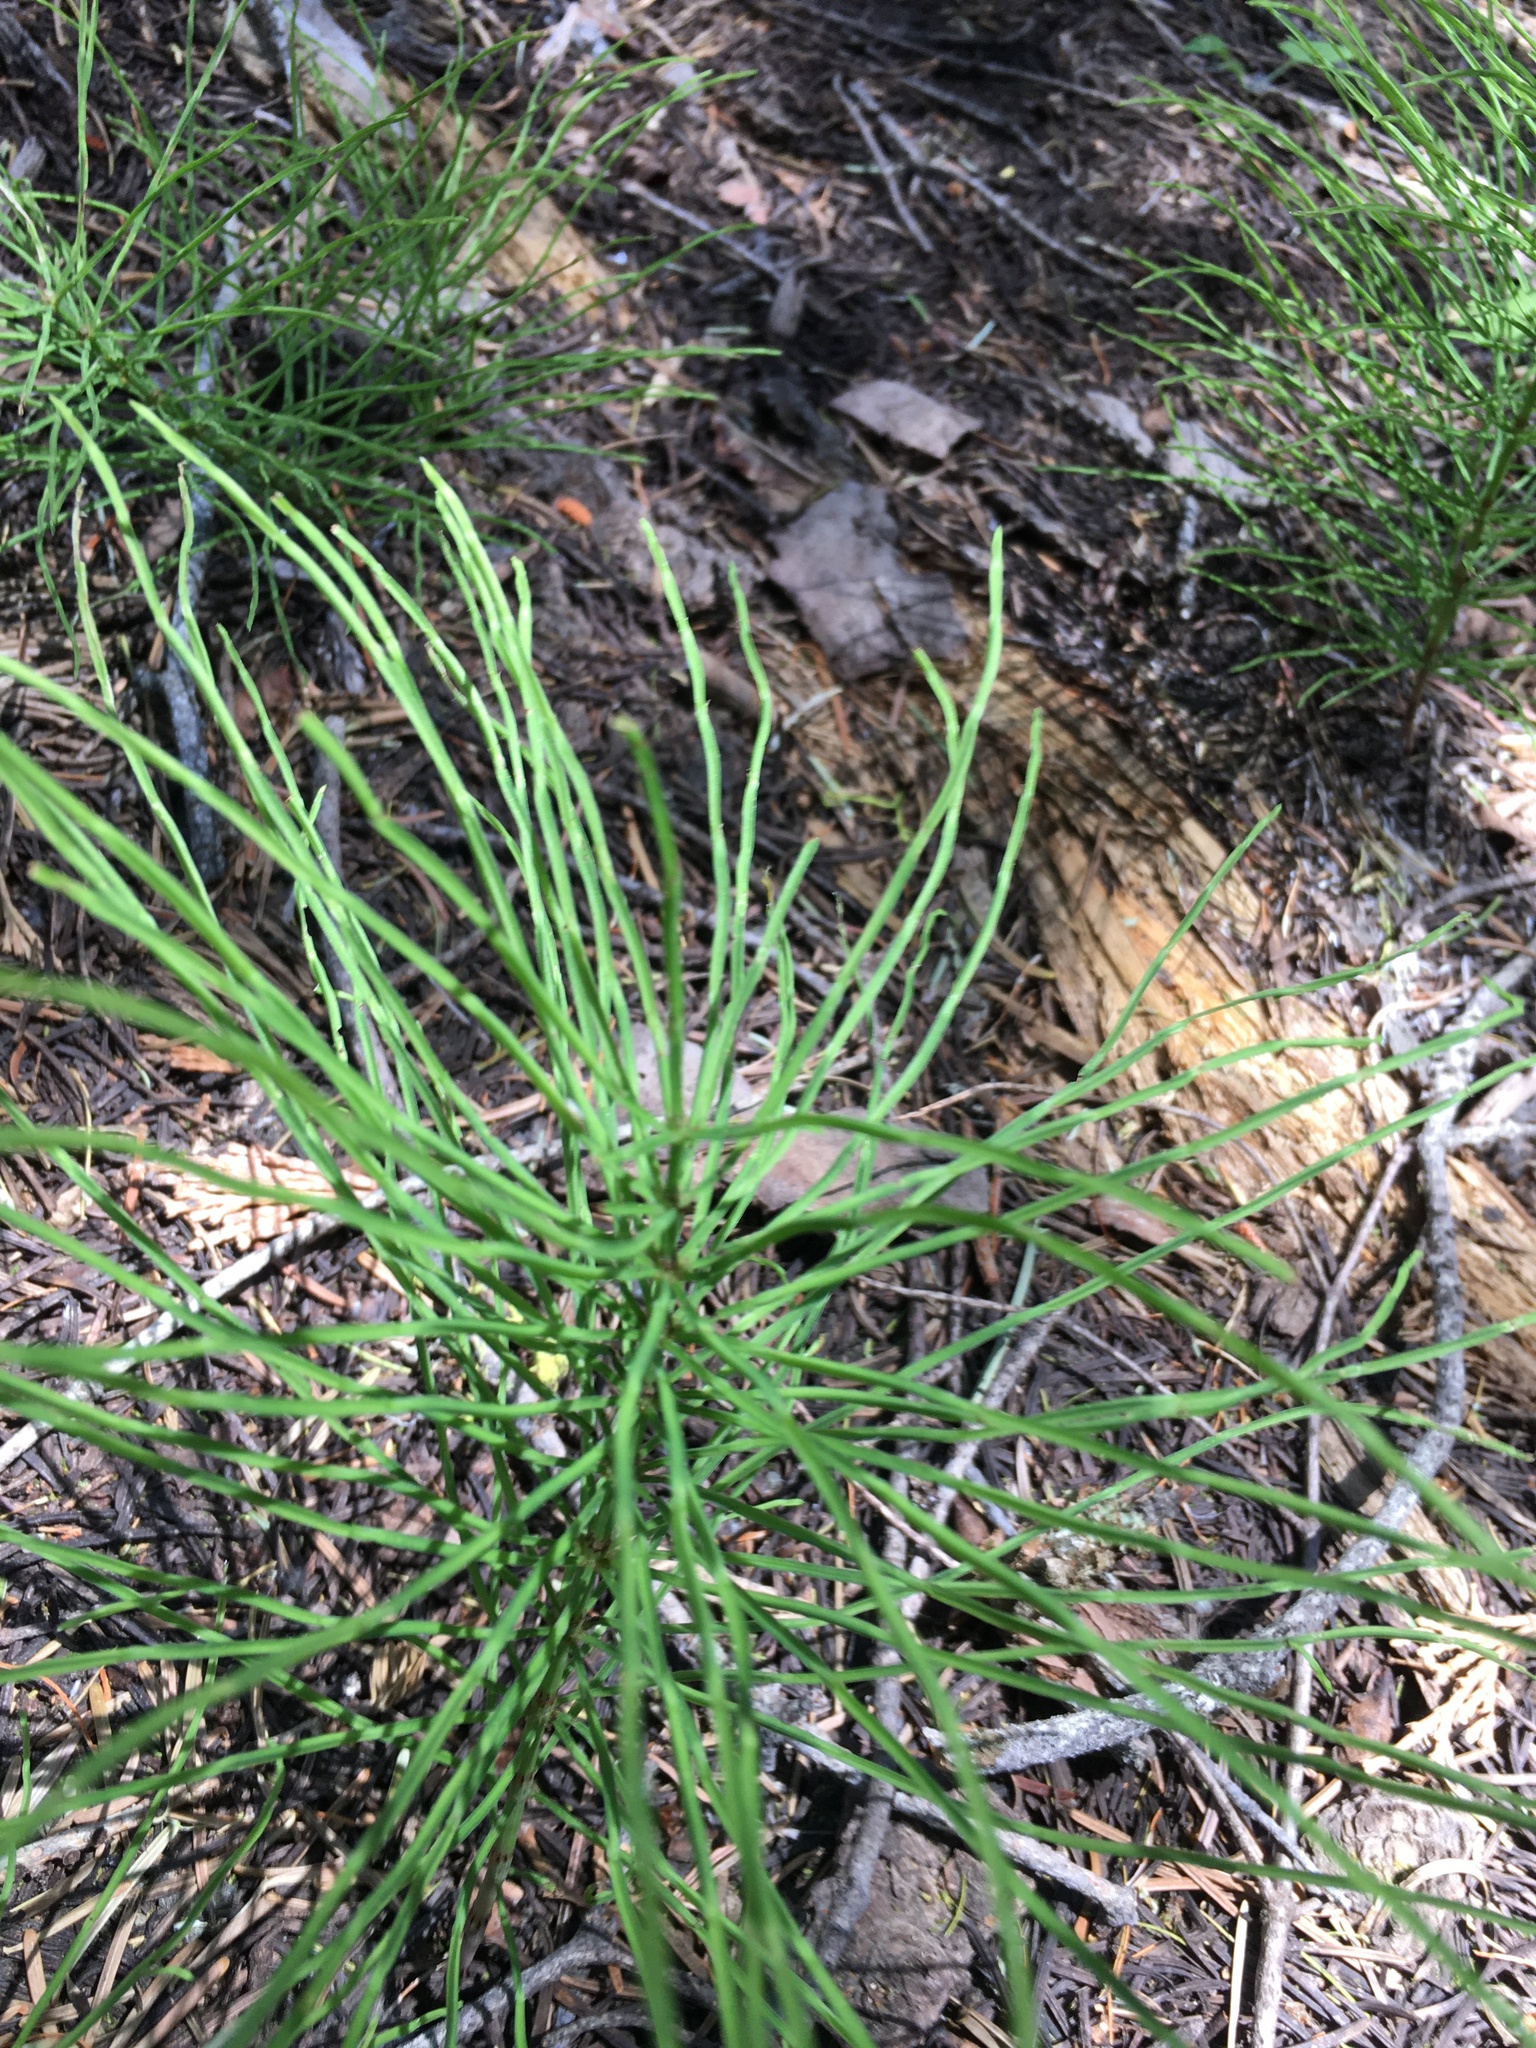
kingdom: Plantae
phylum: Tracheophyta
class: Polypodiopsida
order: Equisetales
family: Equisetaceae
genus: Equisetum
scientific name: Equisetum arvense
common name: Field horsetail
